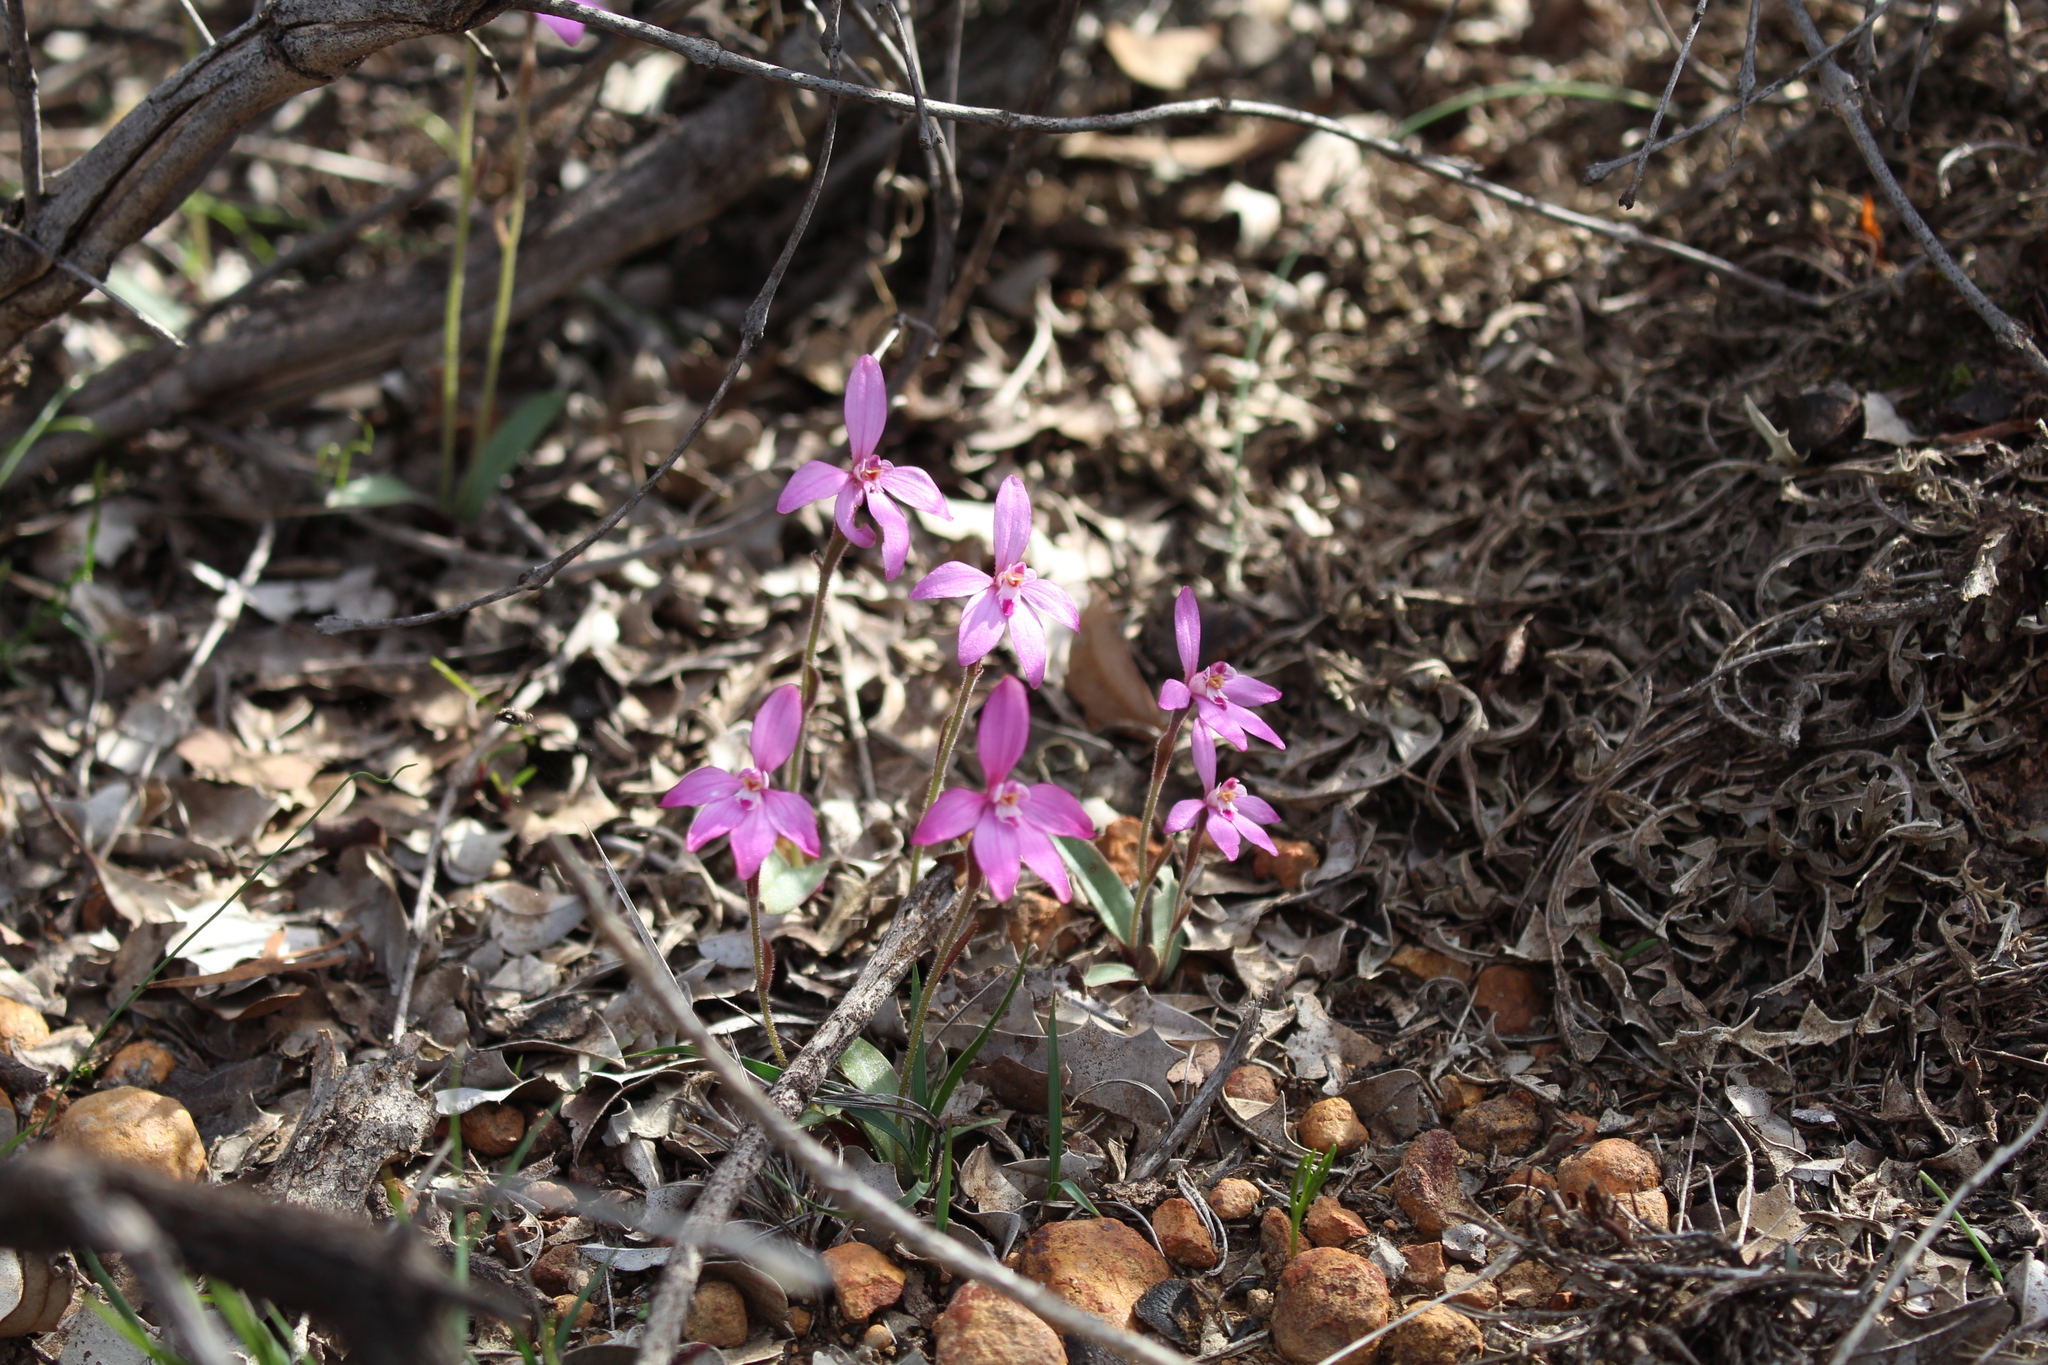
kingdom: Plantae
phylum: Tracheophyta
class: Liliopsida
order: Asparagales
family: Orchidaceae
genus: Caladenia
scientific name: Caladenia reptans
